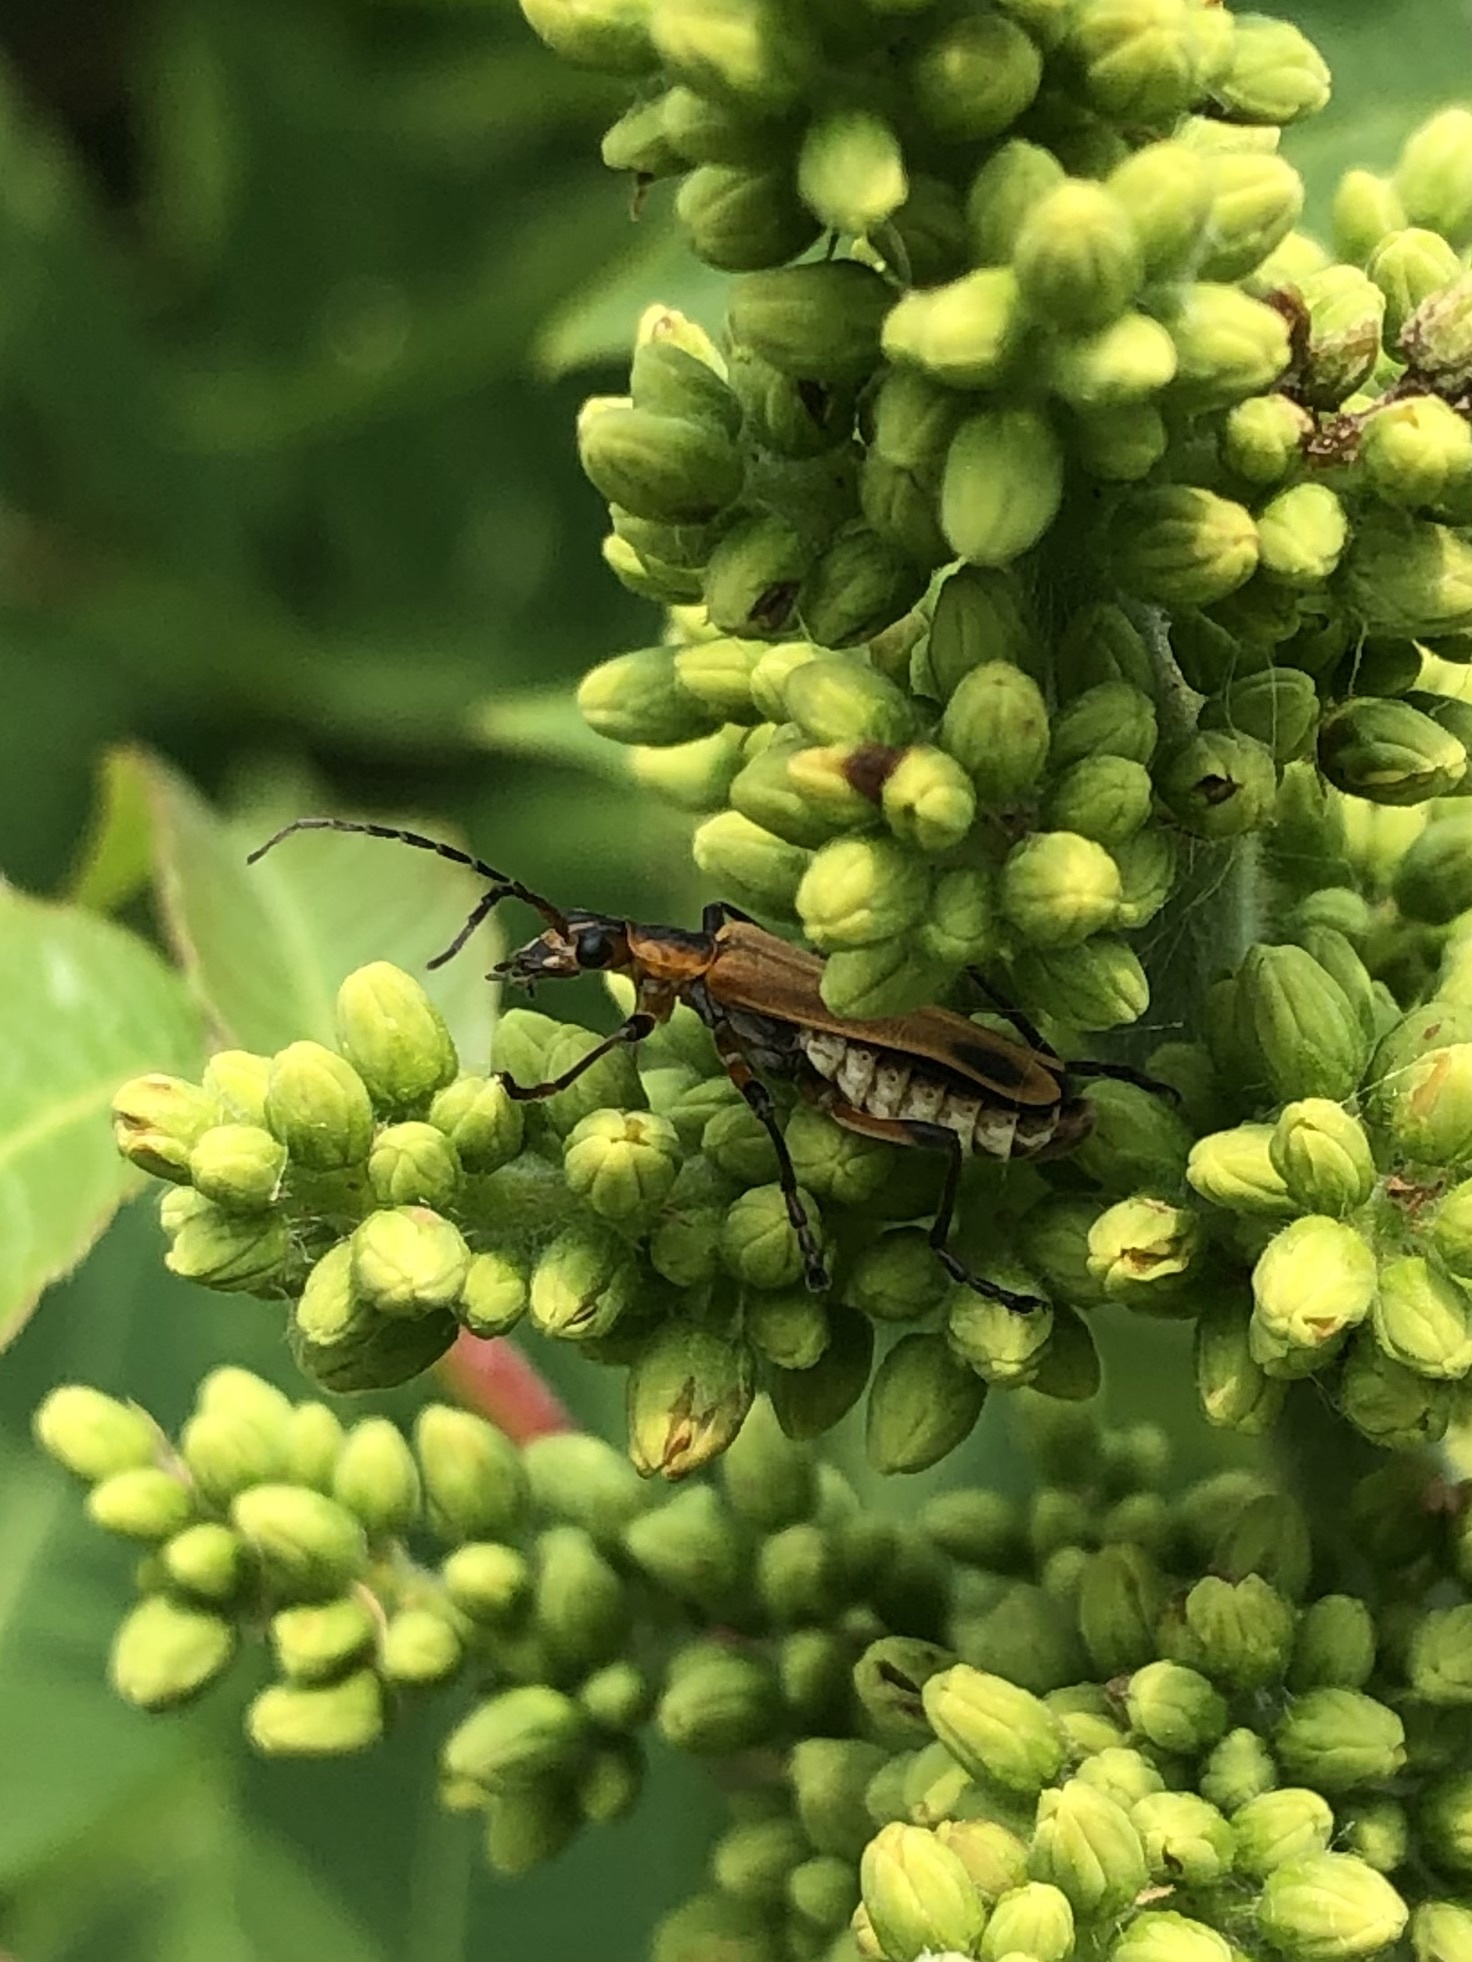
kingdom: Animalia
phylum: Arthropoda
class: Insecta
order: Coleoptera
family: Cantharidae
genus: Chauliognathus
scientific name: Chauliognathus marginatus
